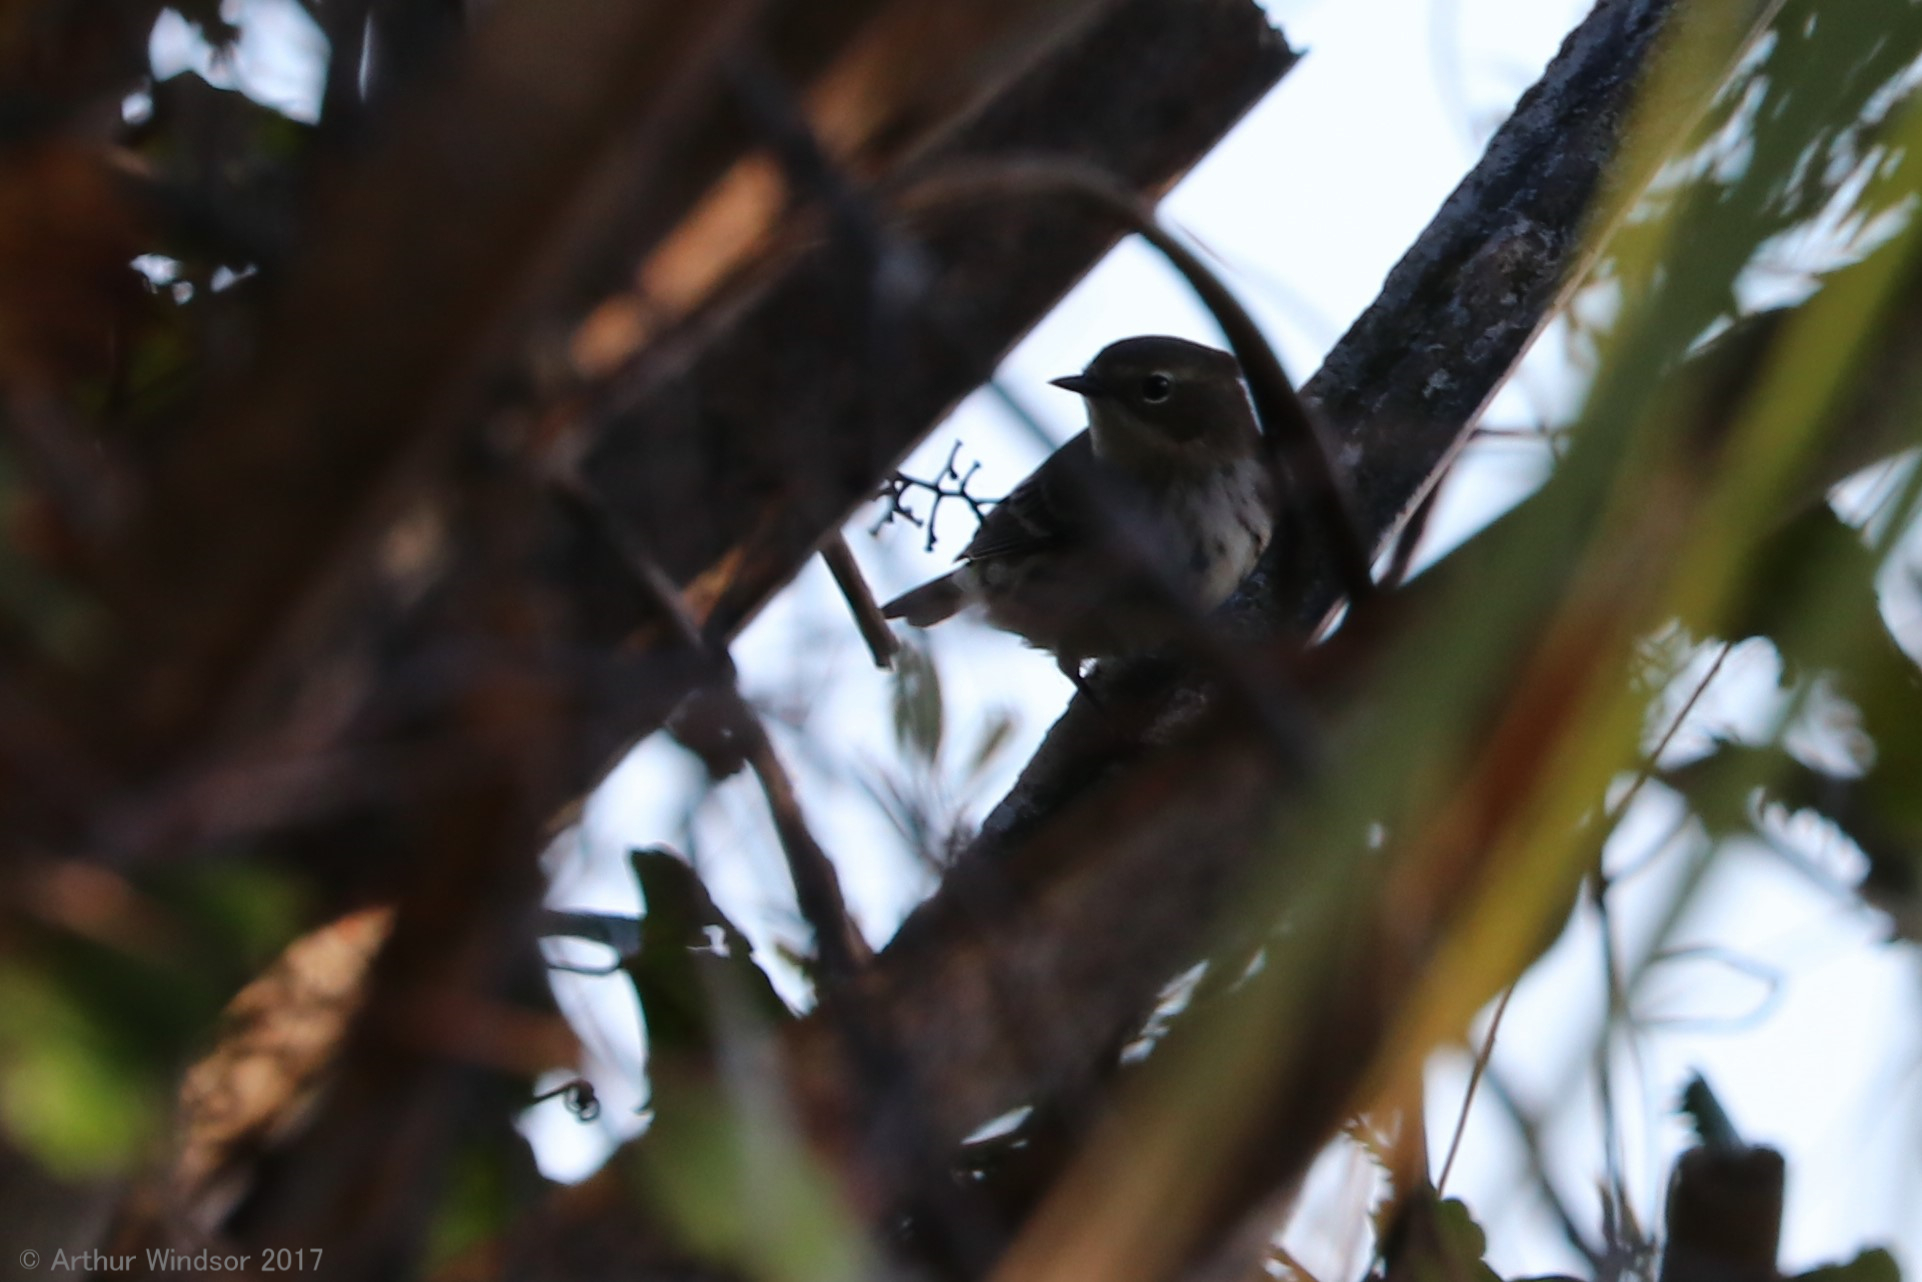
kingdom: Animalia
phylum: Chordata
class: Aves
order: Passeriformes
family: Parulidae
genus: Setophaga
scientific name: Setophaga coronata
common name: Myrtle warbler
